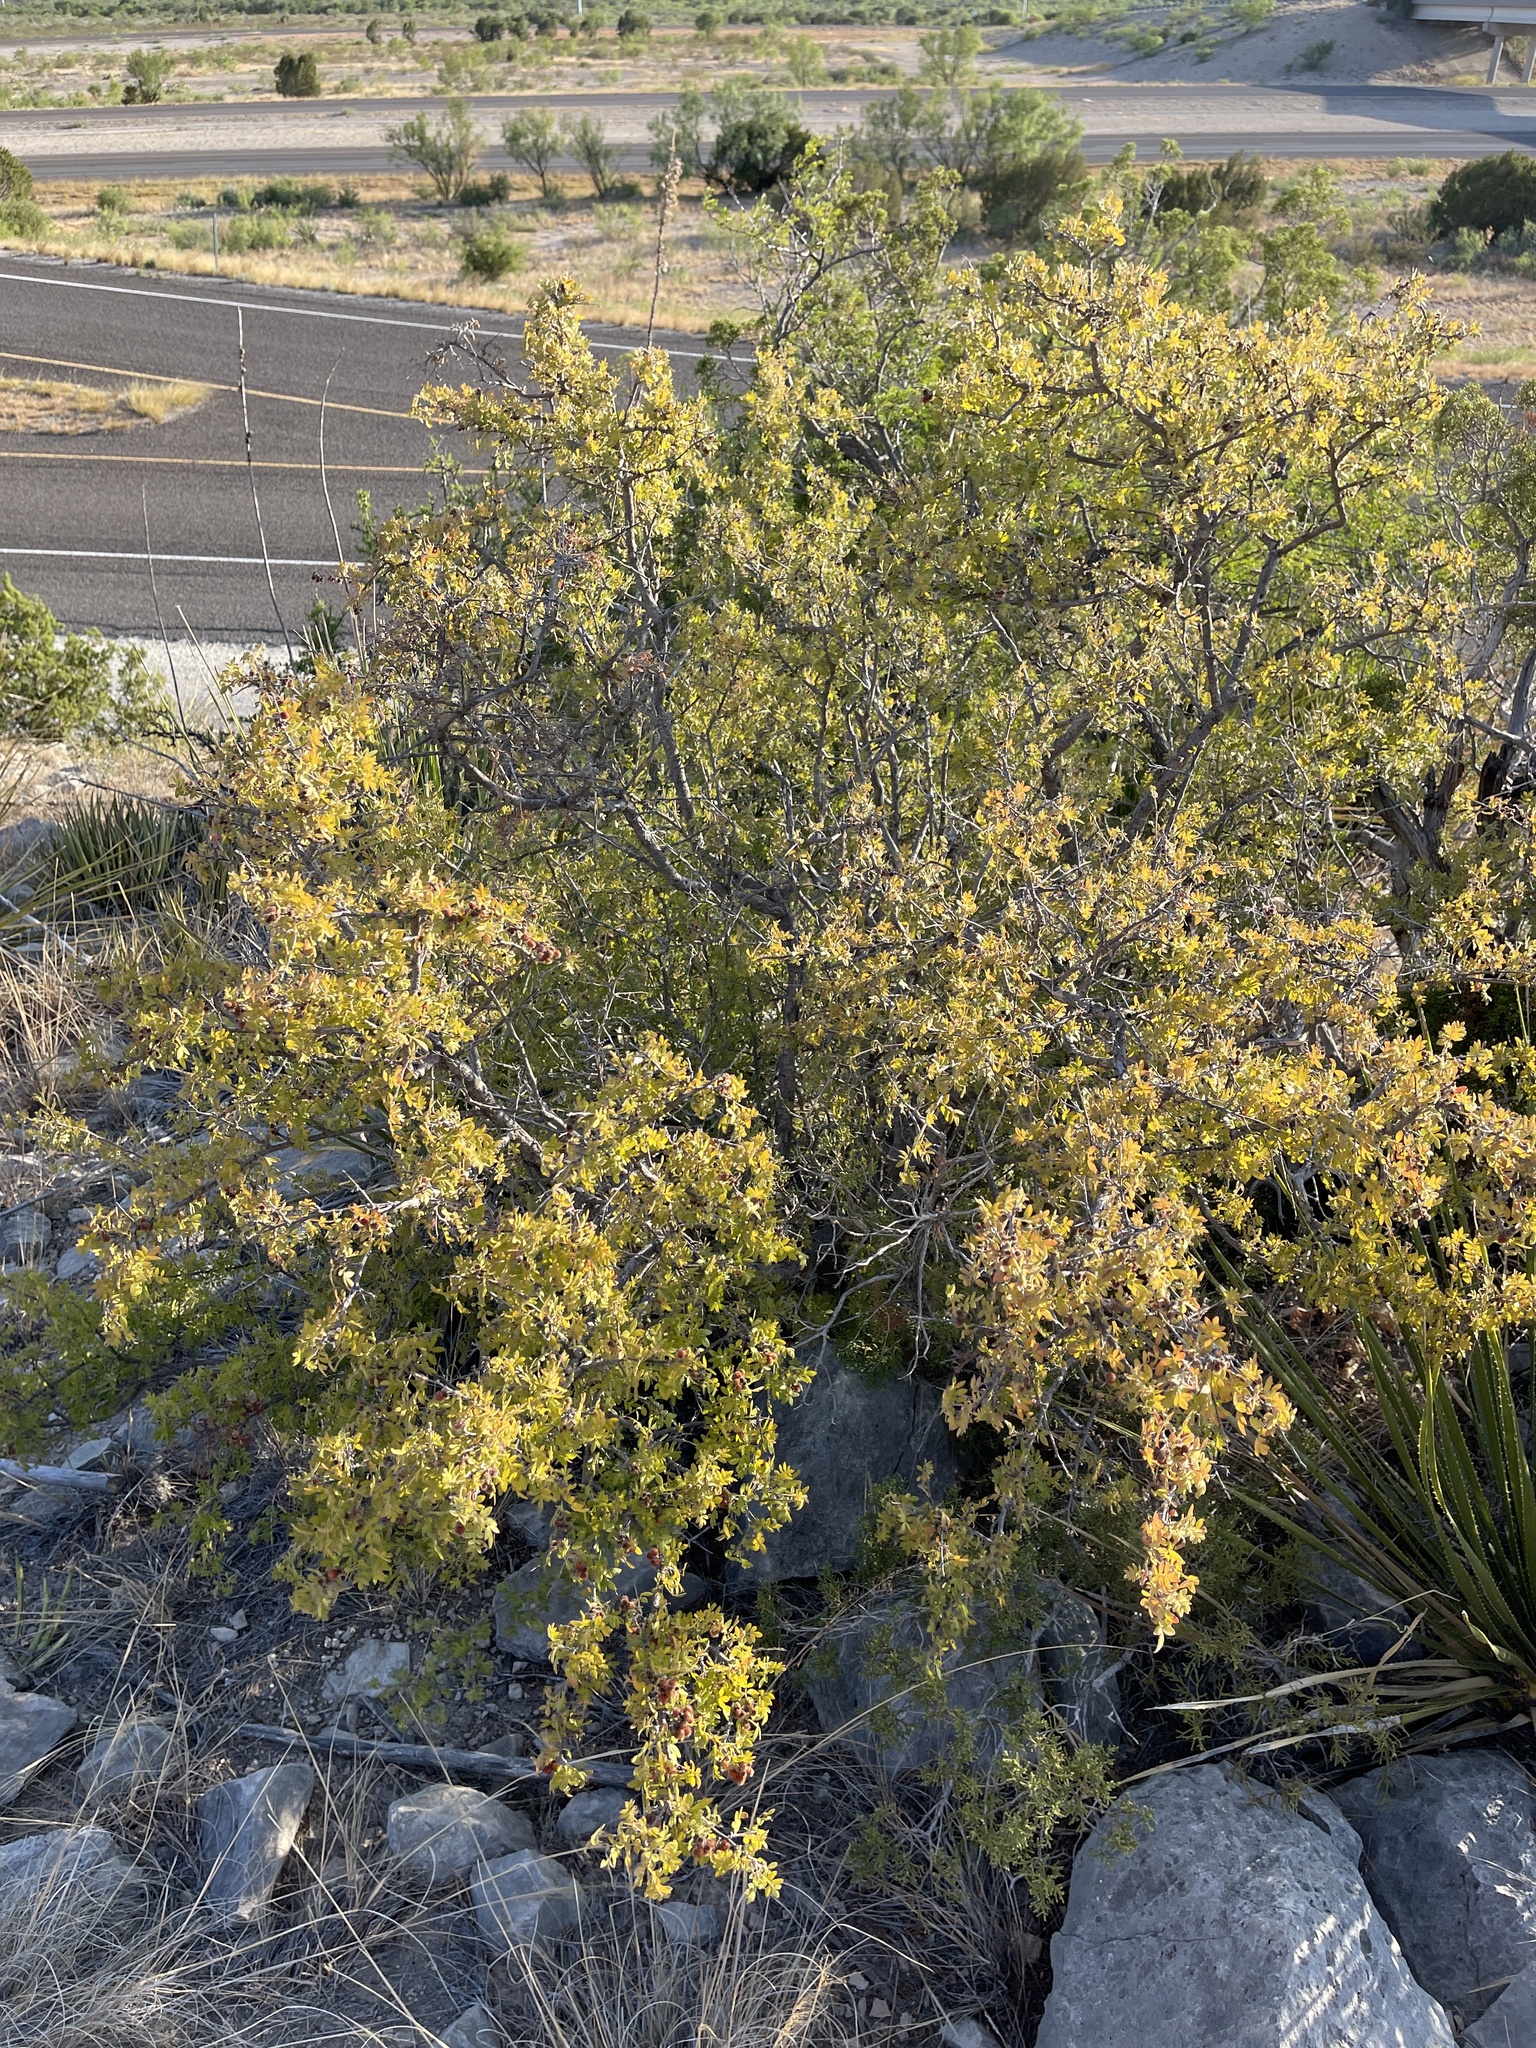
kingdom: Plantae
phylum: Tracheophyta
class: Magnoliopsida
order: Sapindales
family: Anacardiaceae
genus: Rhus
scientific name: Rhus microphylla
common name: Desert sumac
